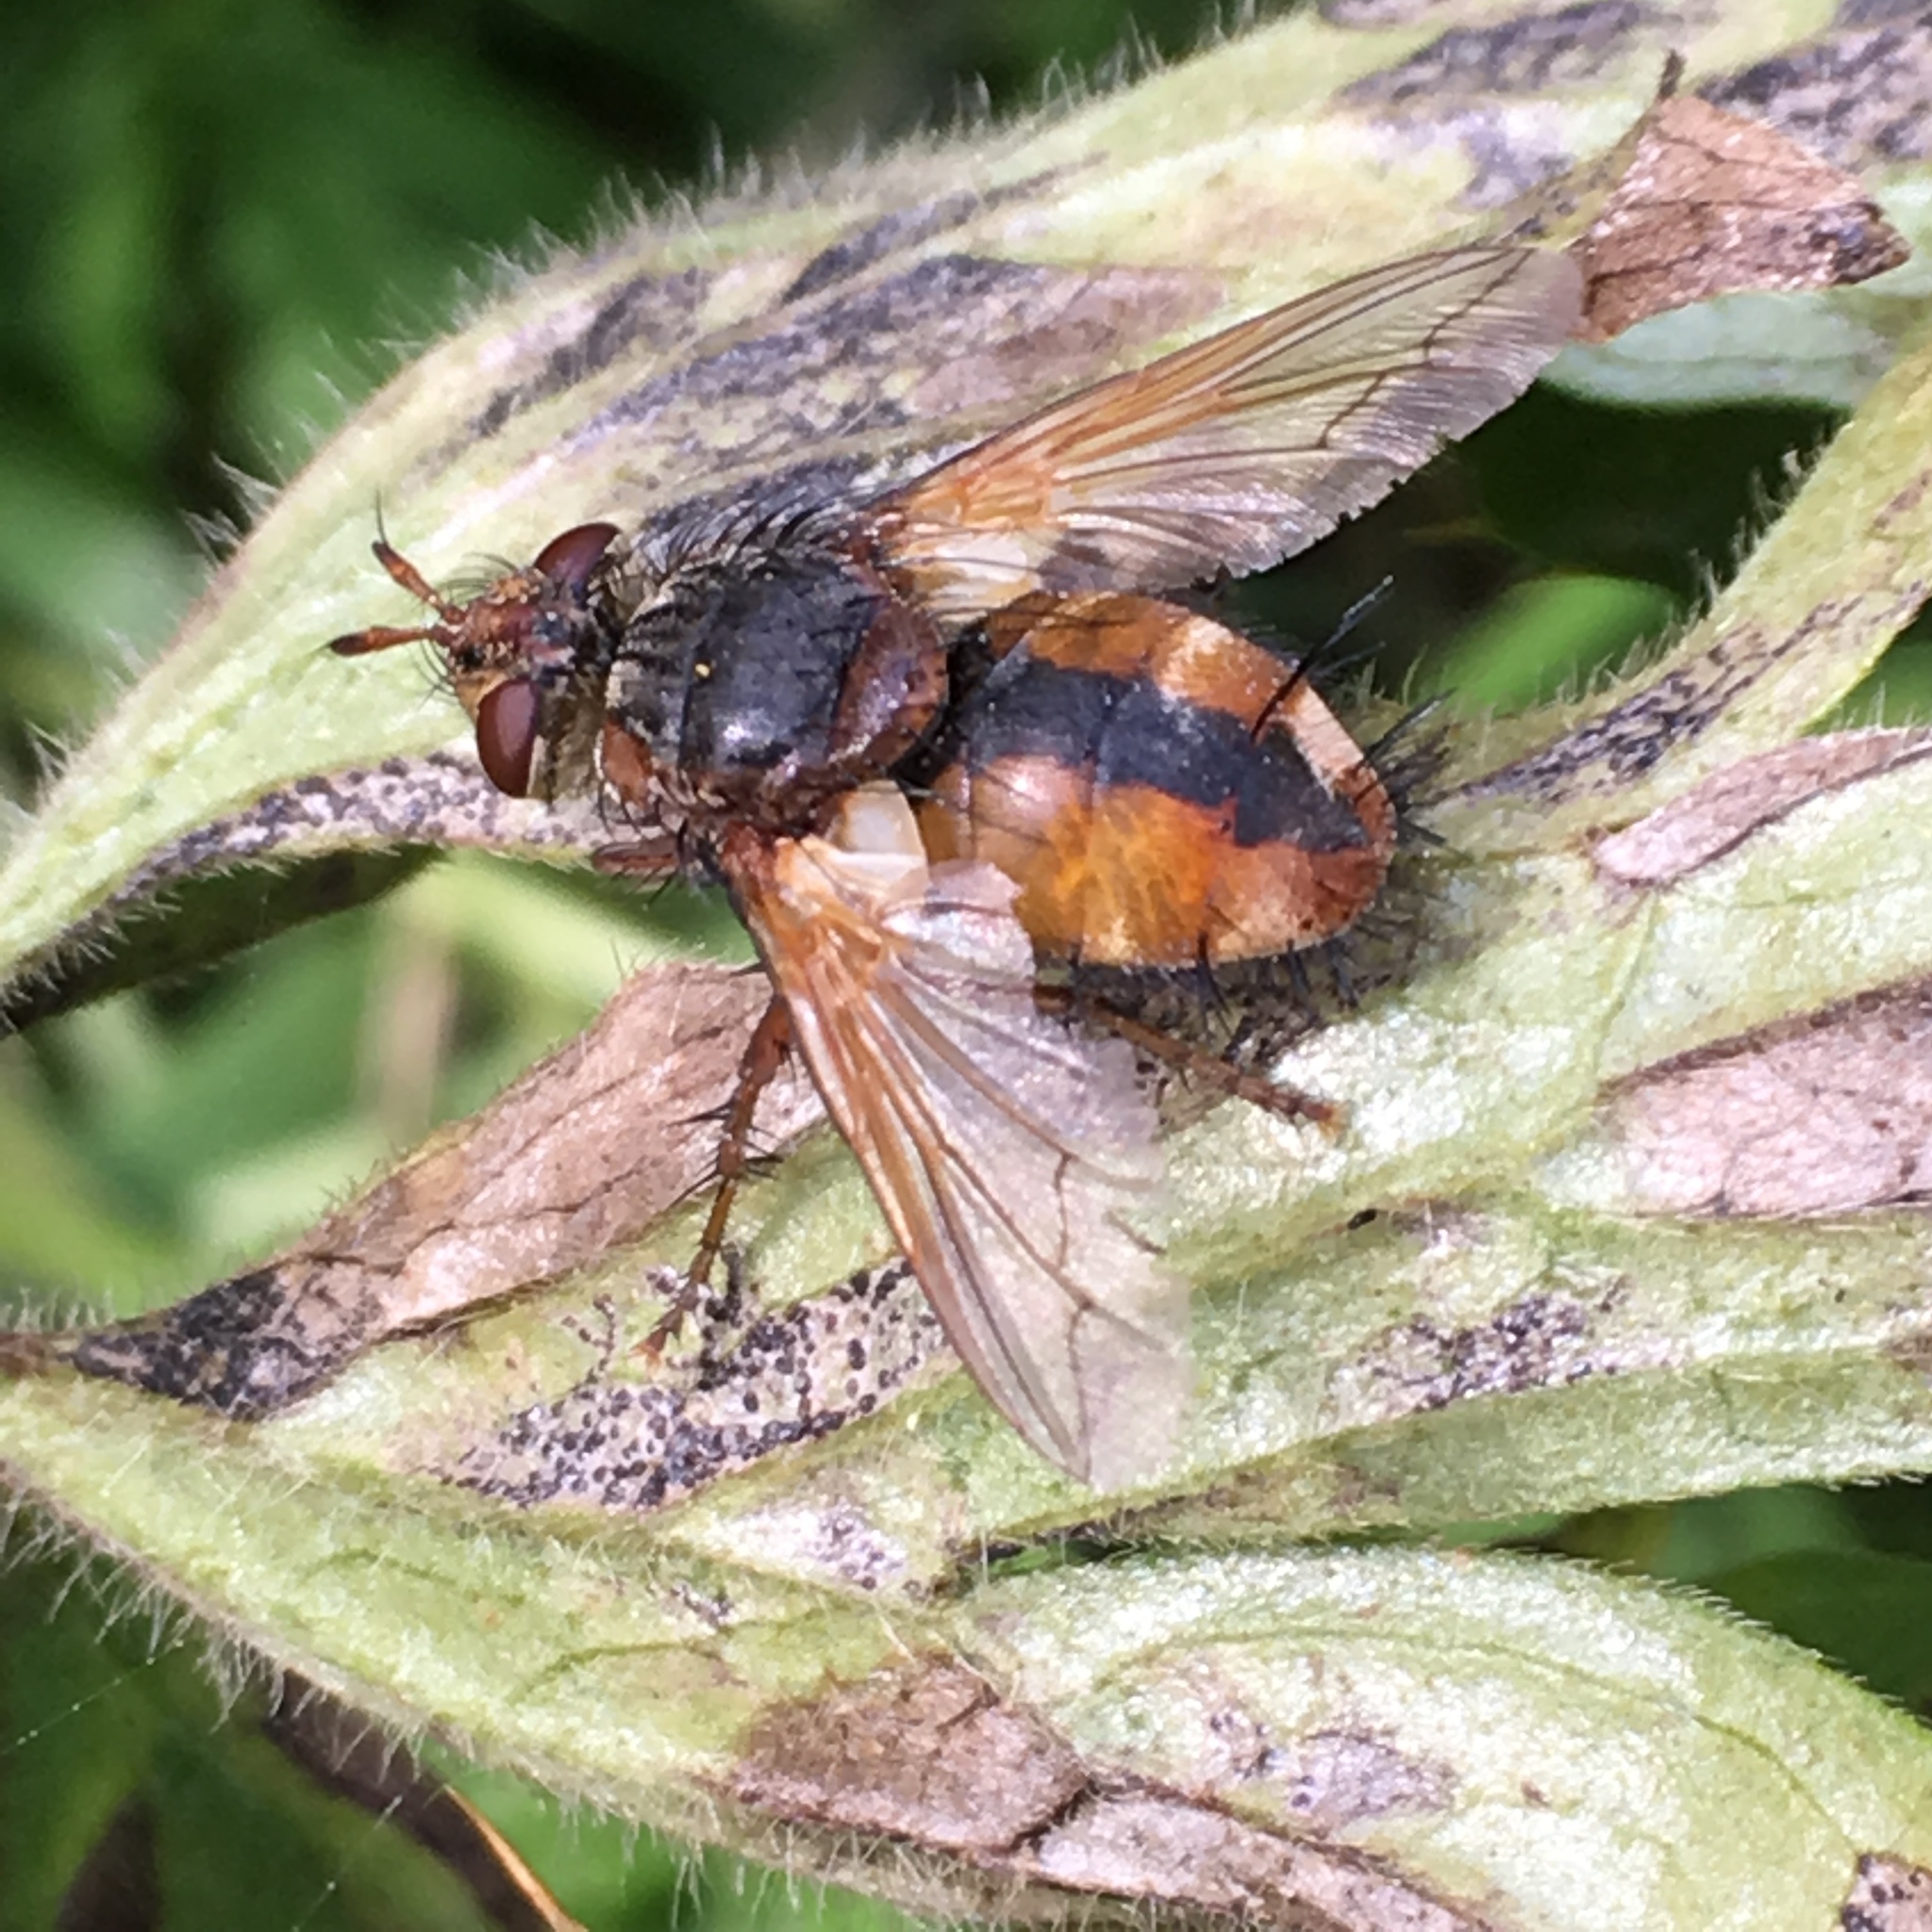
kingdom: Animalia
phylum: Arthropoda
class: Insecta
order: Diptera
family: Tachinidae
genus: Tachina
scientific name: Tachina fera
